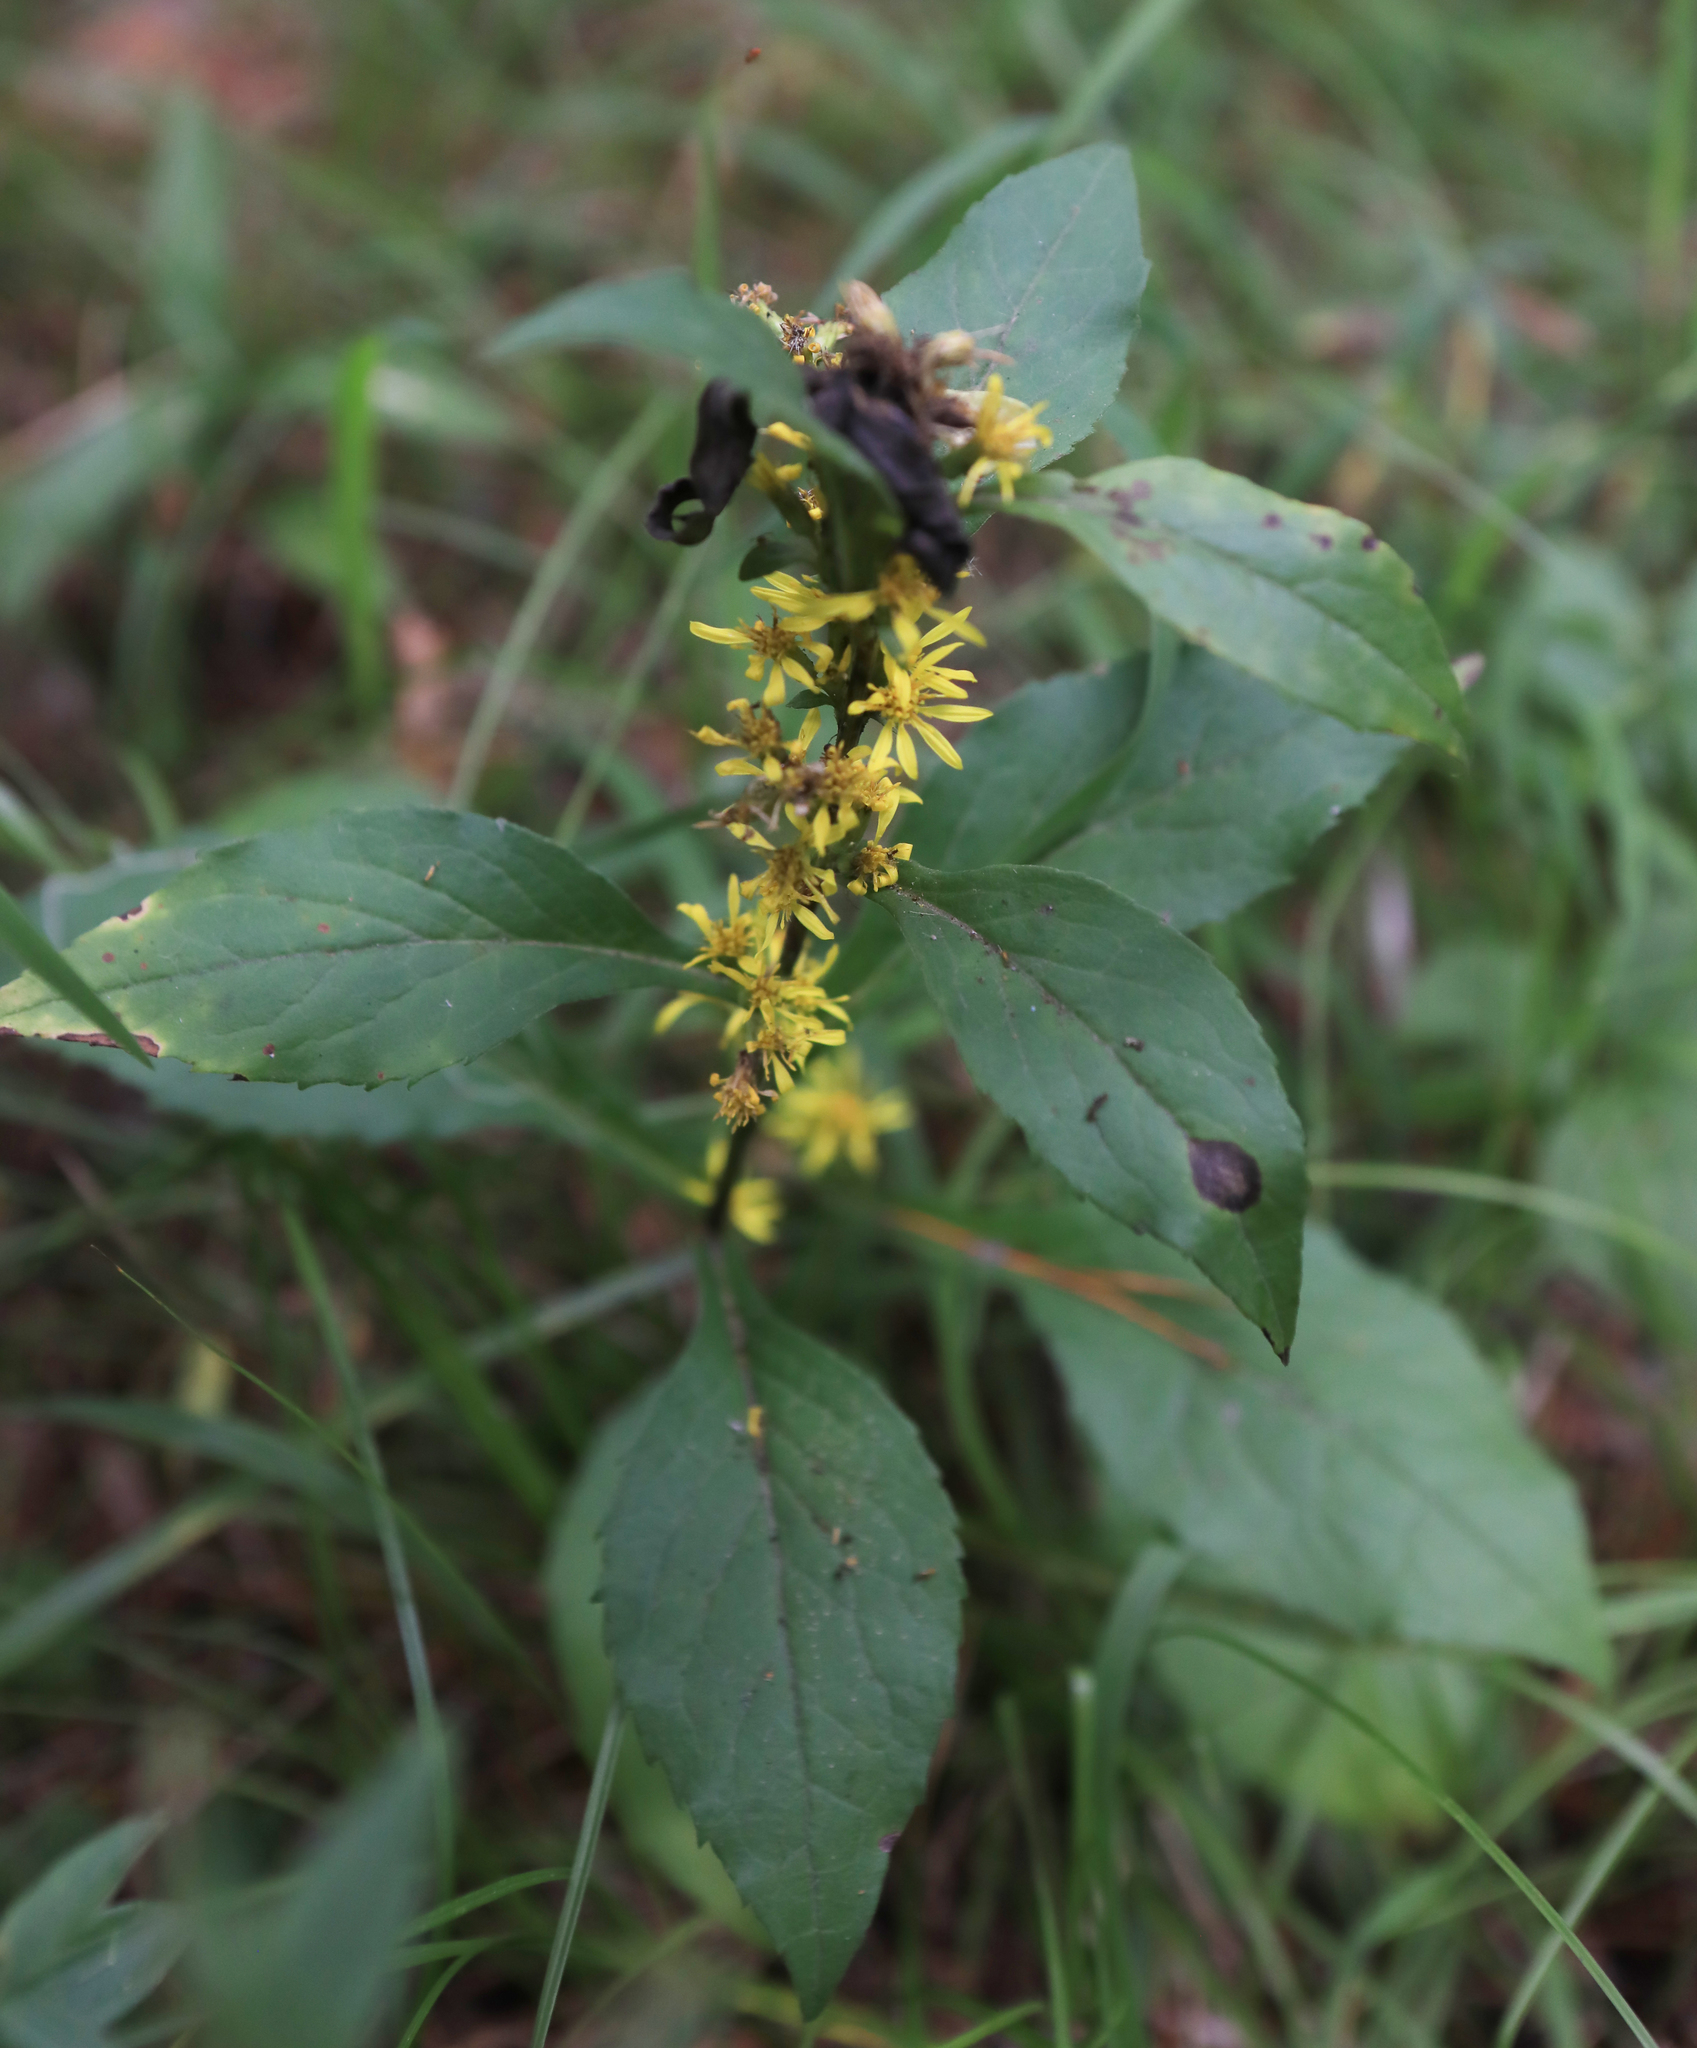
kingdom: Plantae
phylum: Tracheophyta
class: Magnoliopsida
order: Asterales
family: Asteraceae
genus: Solidago
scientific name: Solidago virgaurea
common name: Goldenrod
